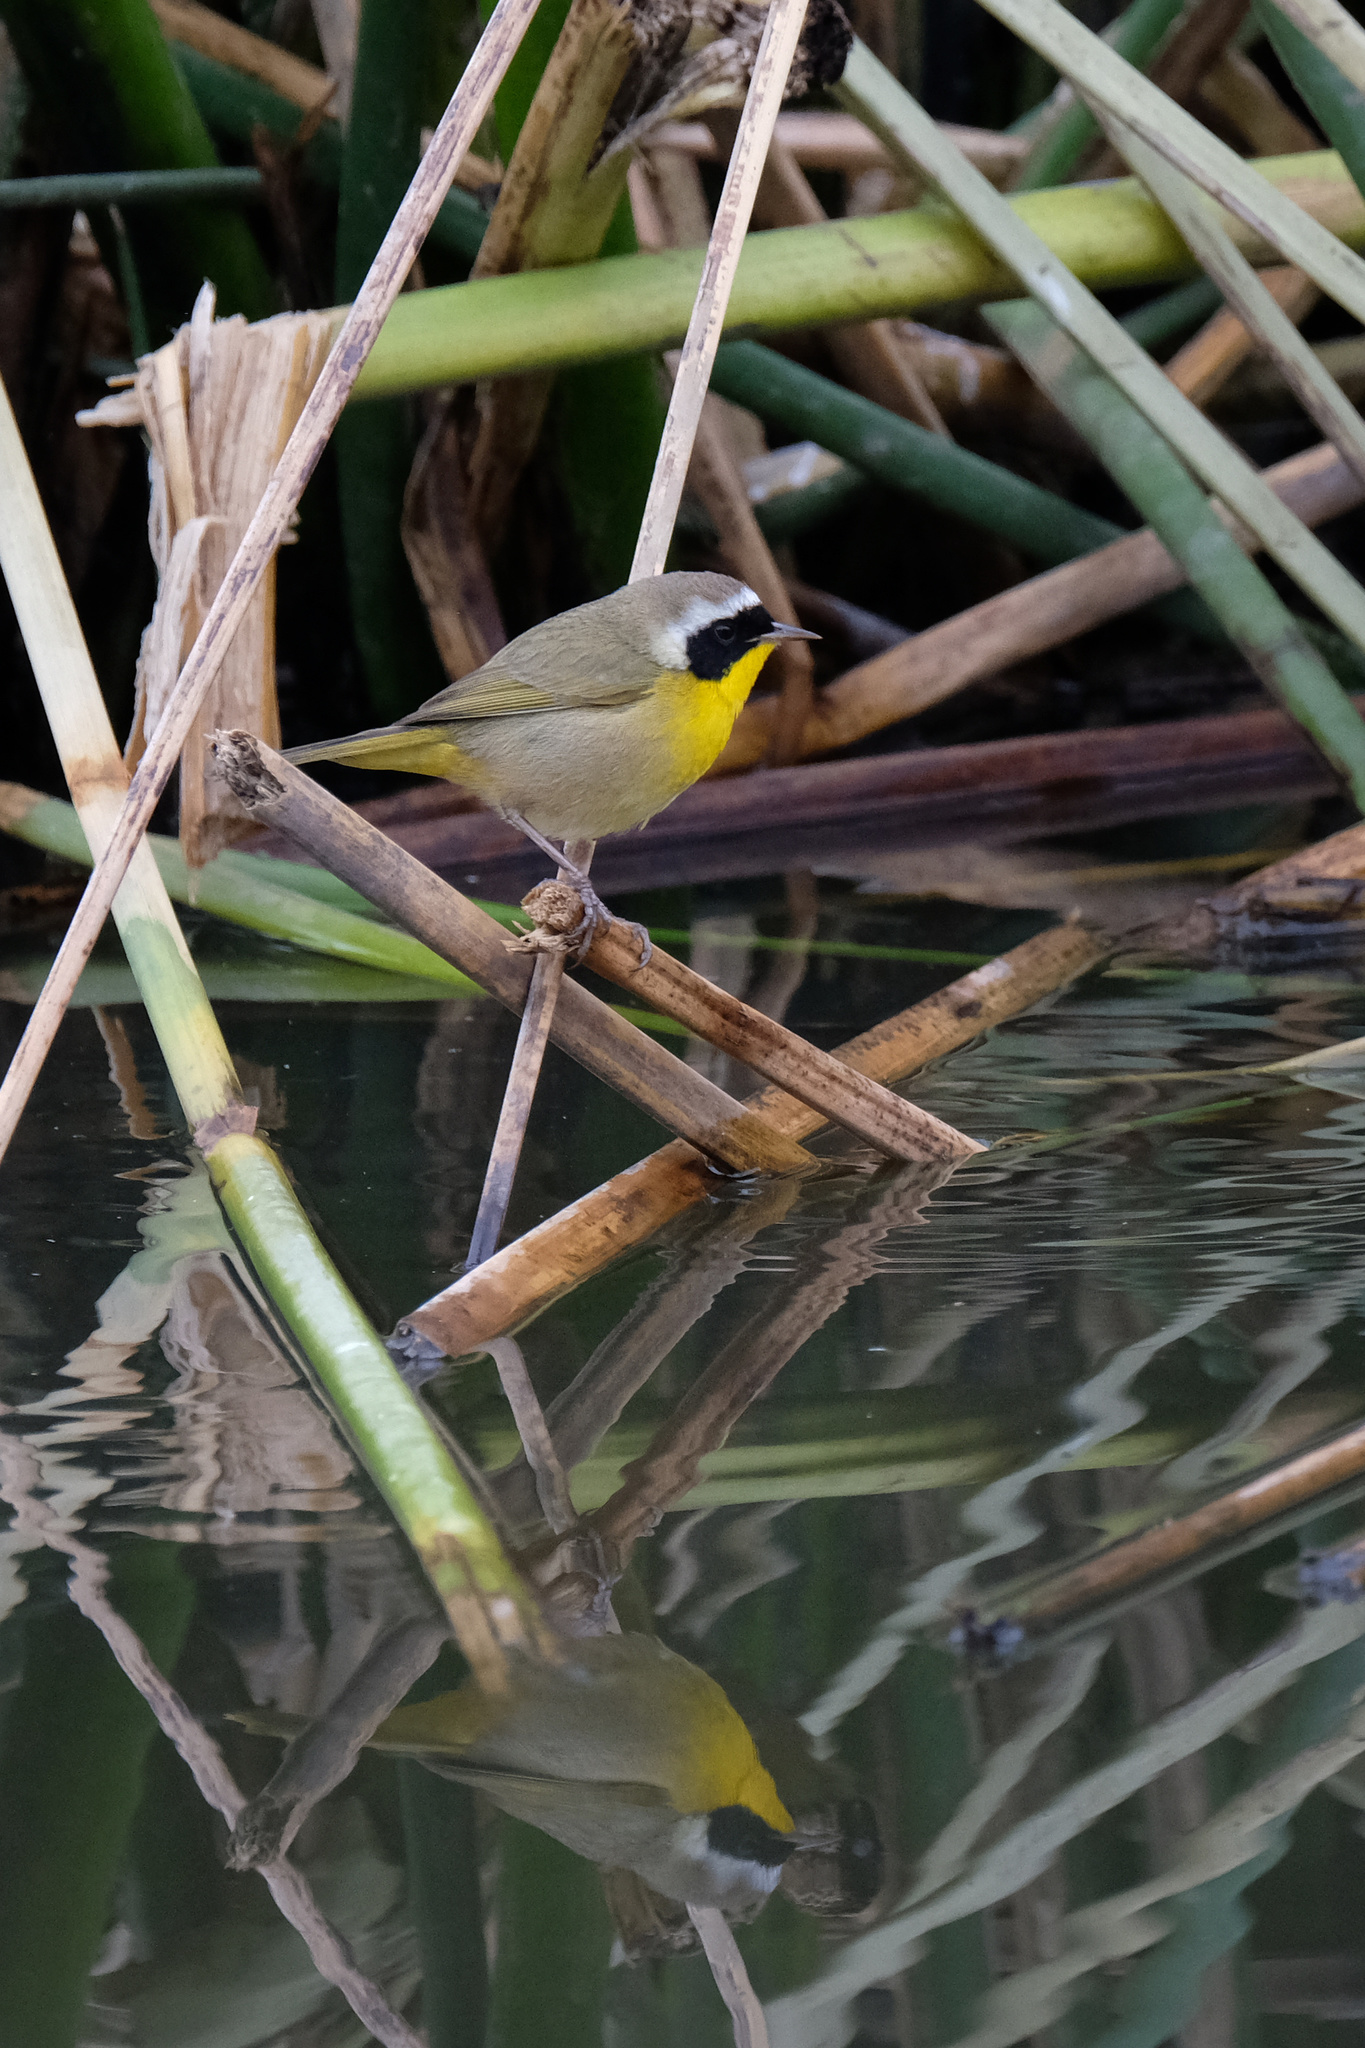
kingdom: Animalia
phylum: Chordata
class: Aves
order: Passeriformes
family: Parulidae
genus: Geothlypis
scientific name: Geothlypis trichas
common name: Common yellowthroat
